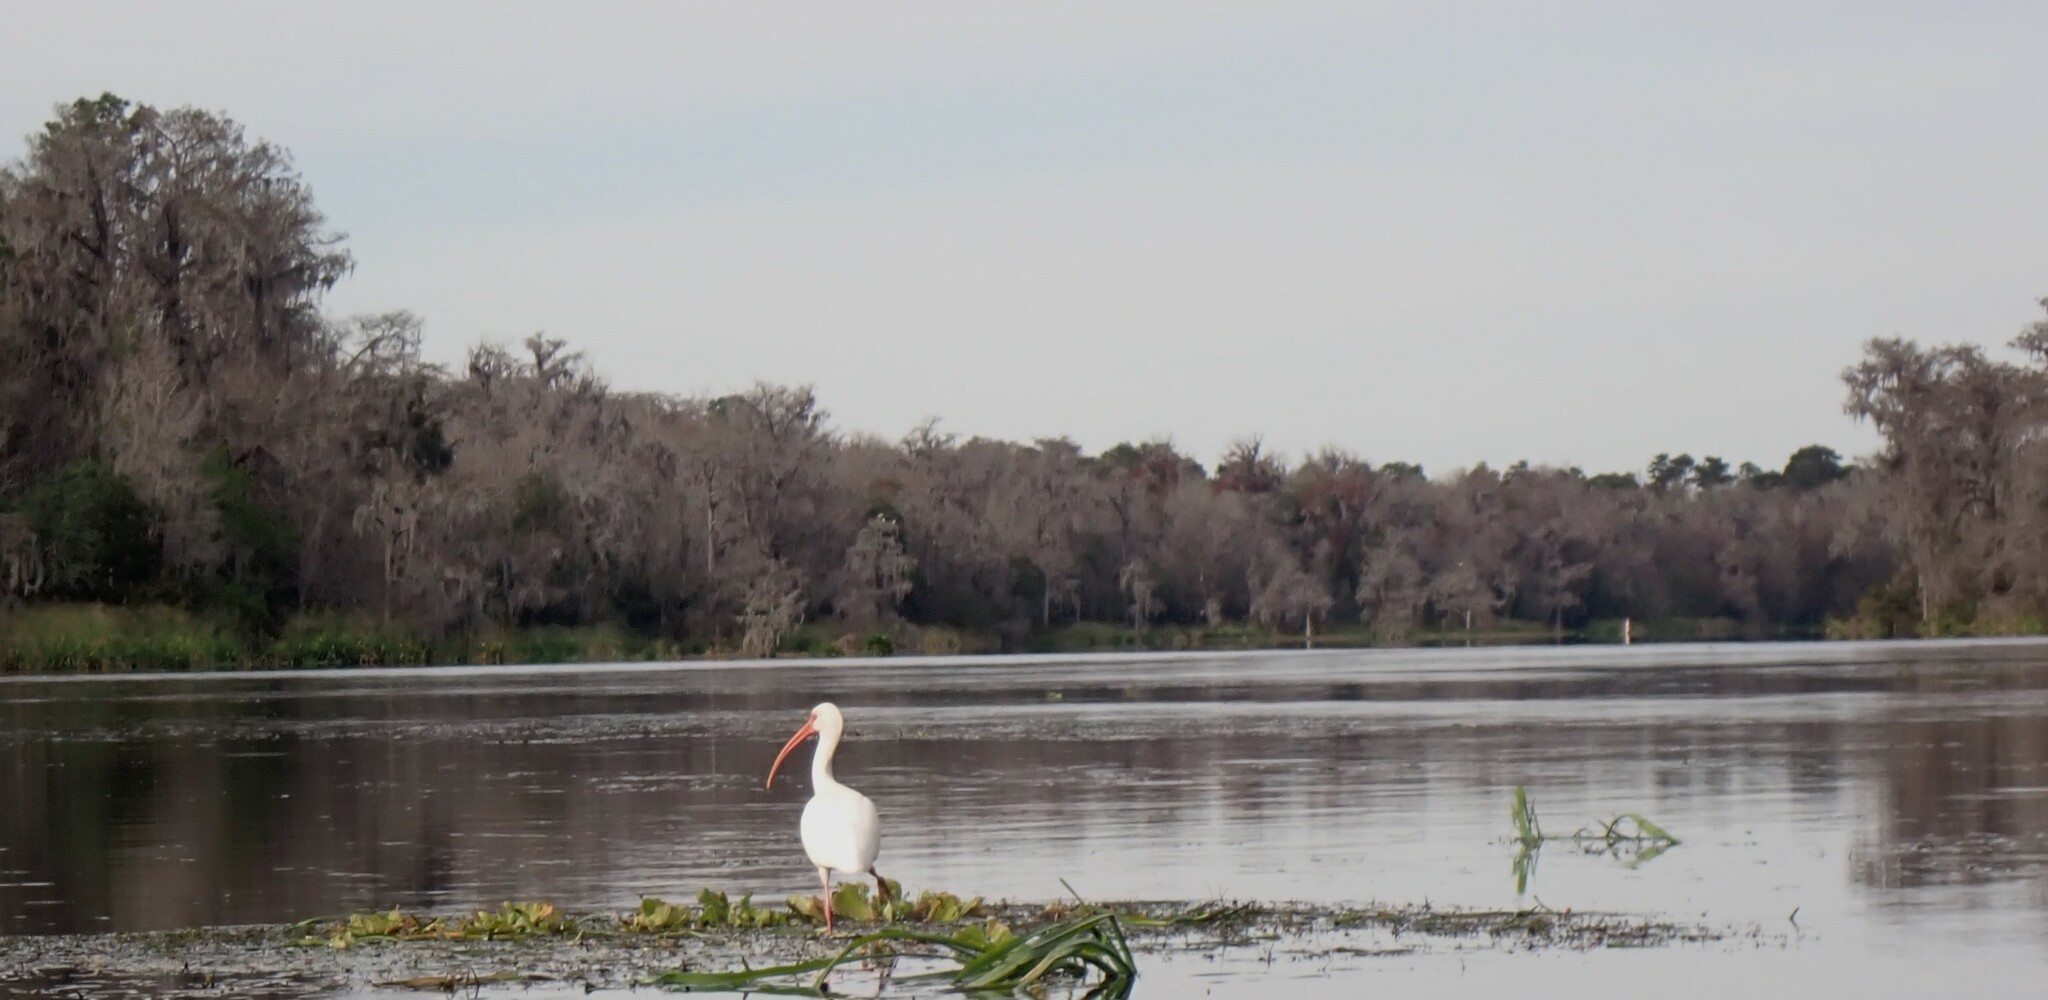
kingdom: Animalia
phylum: Chordata
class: Aves
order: Pelecaniformes
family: Threskiornithidae
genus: Eudocimus
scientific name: Eudocimus albus
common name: White ibis
